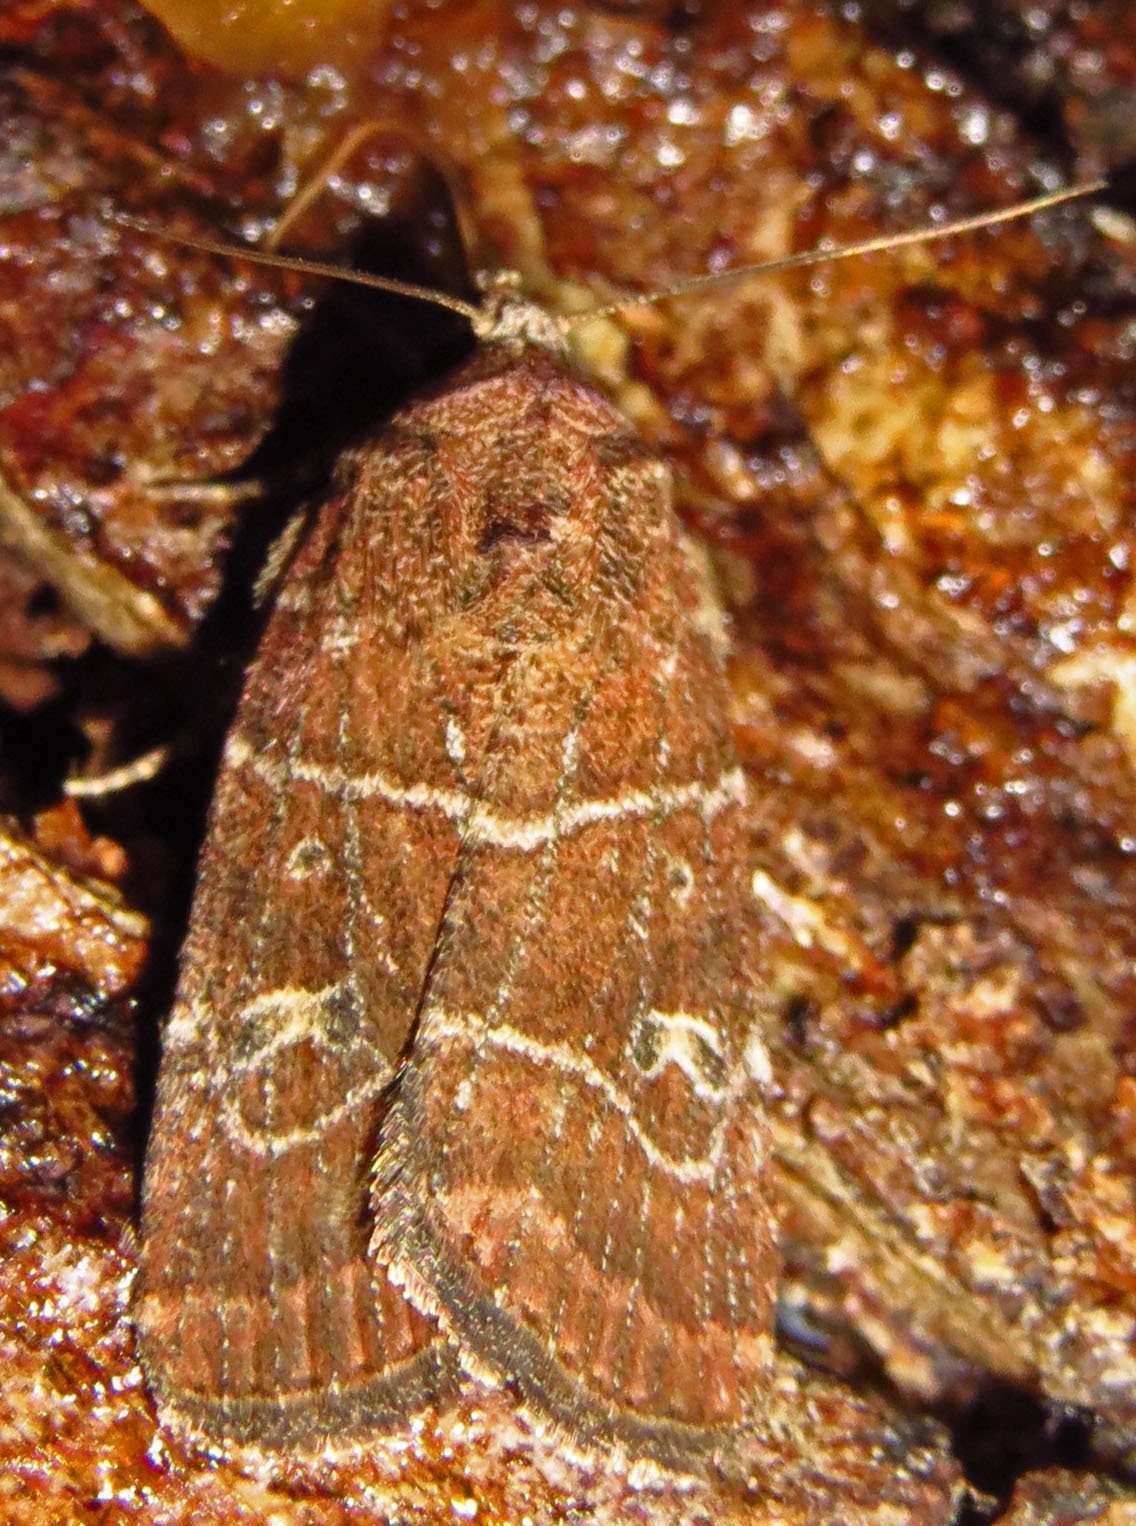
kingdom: Animalia
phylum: Arthropoda
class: Insecta
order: Lepidoptera
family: Noctuidae
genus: Elaphria
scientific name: Elaphria grata
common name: Grateful midget moth
